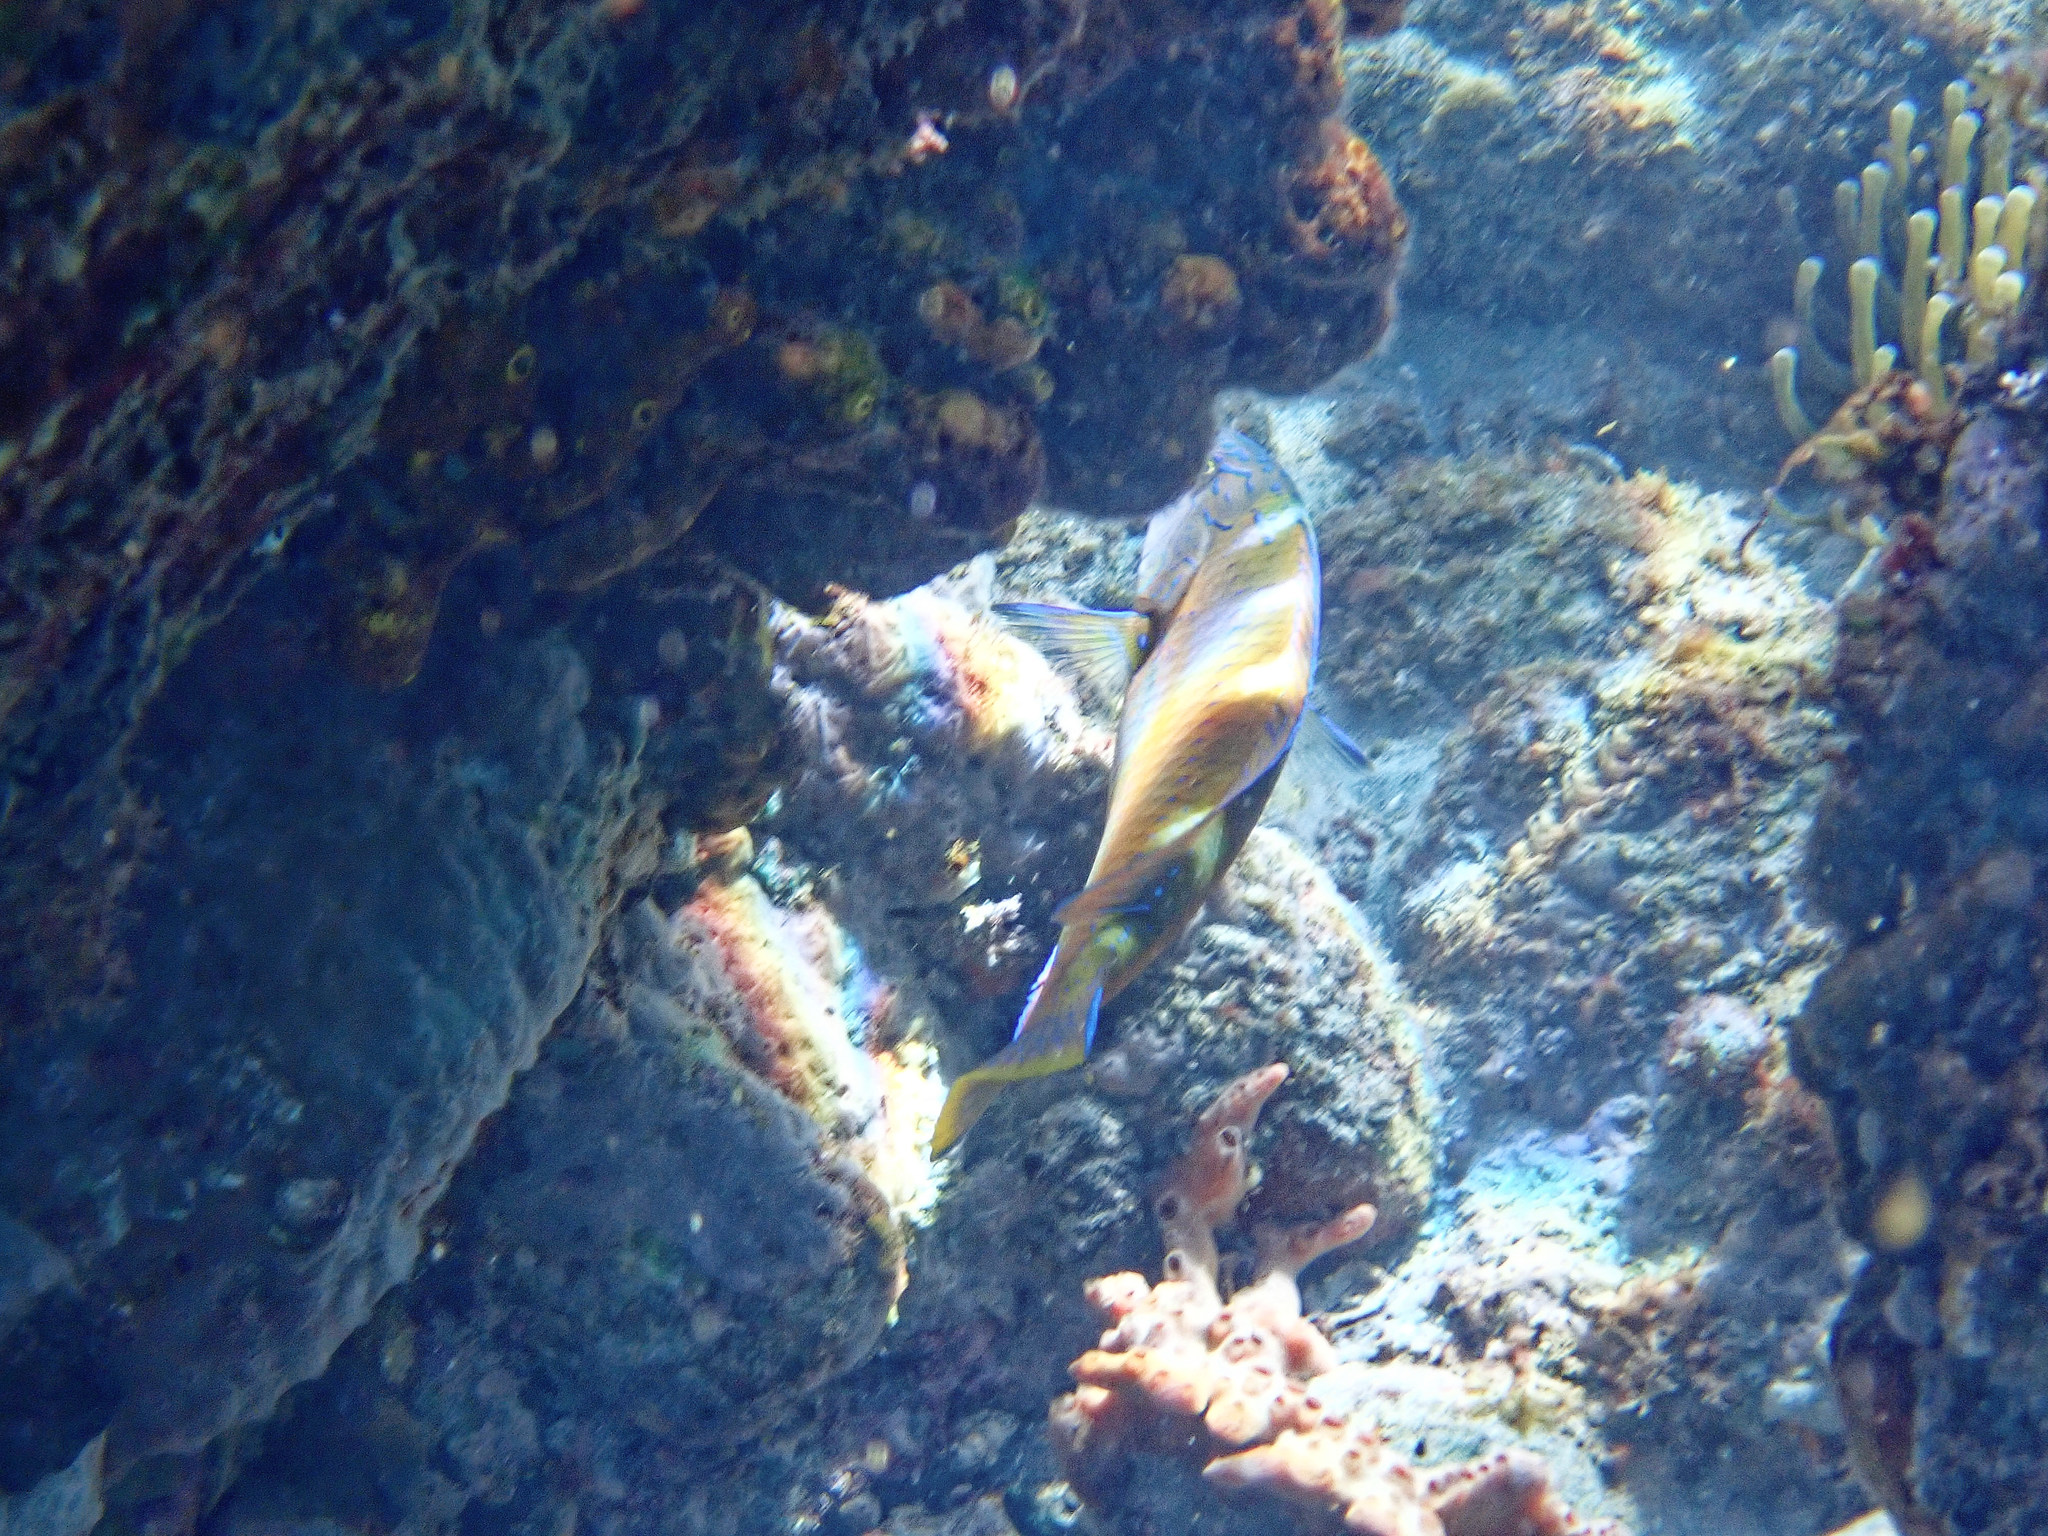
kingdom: Animalia
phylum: Chordata
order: Perciformes
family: Labridae
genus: Halichoeres
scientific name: Halichoeres radiatus
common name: Puddingwife
